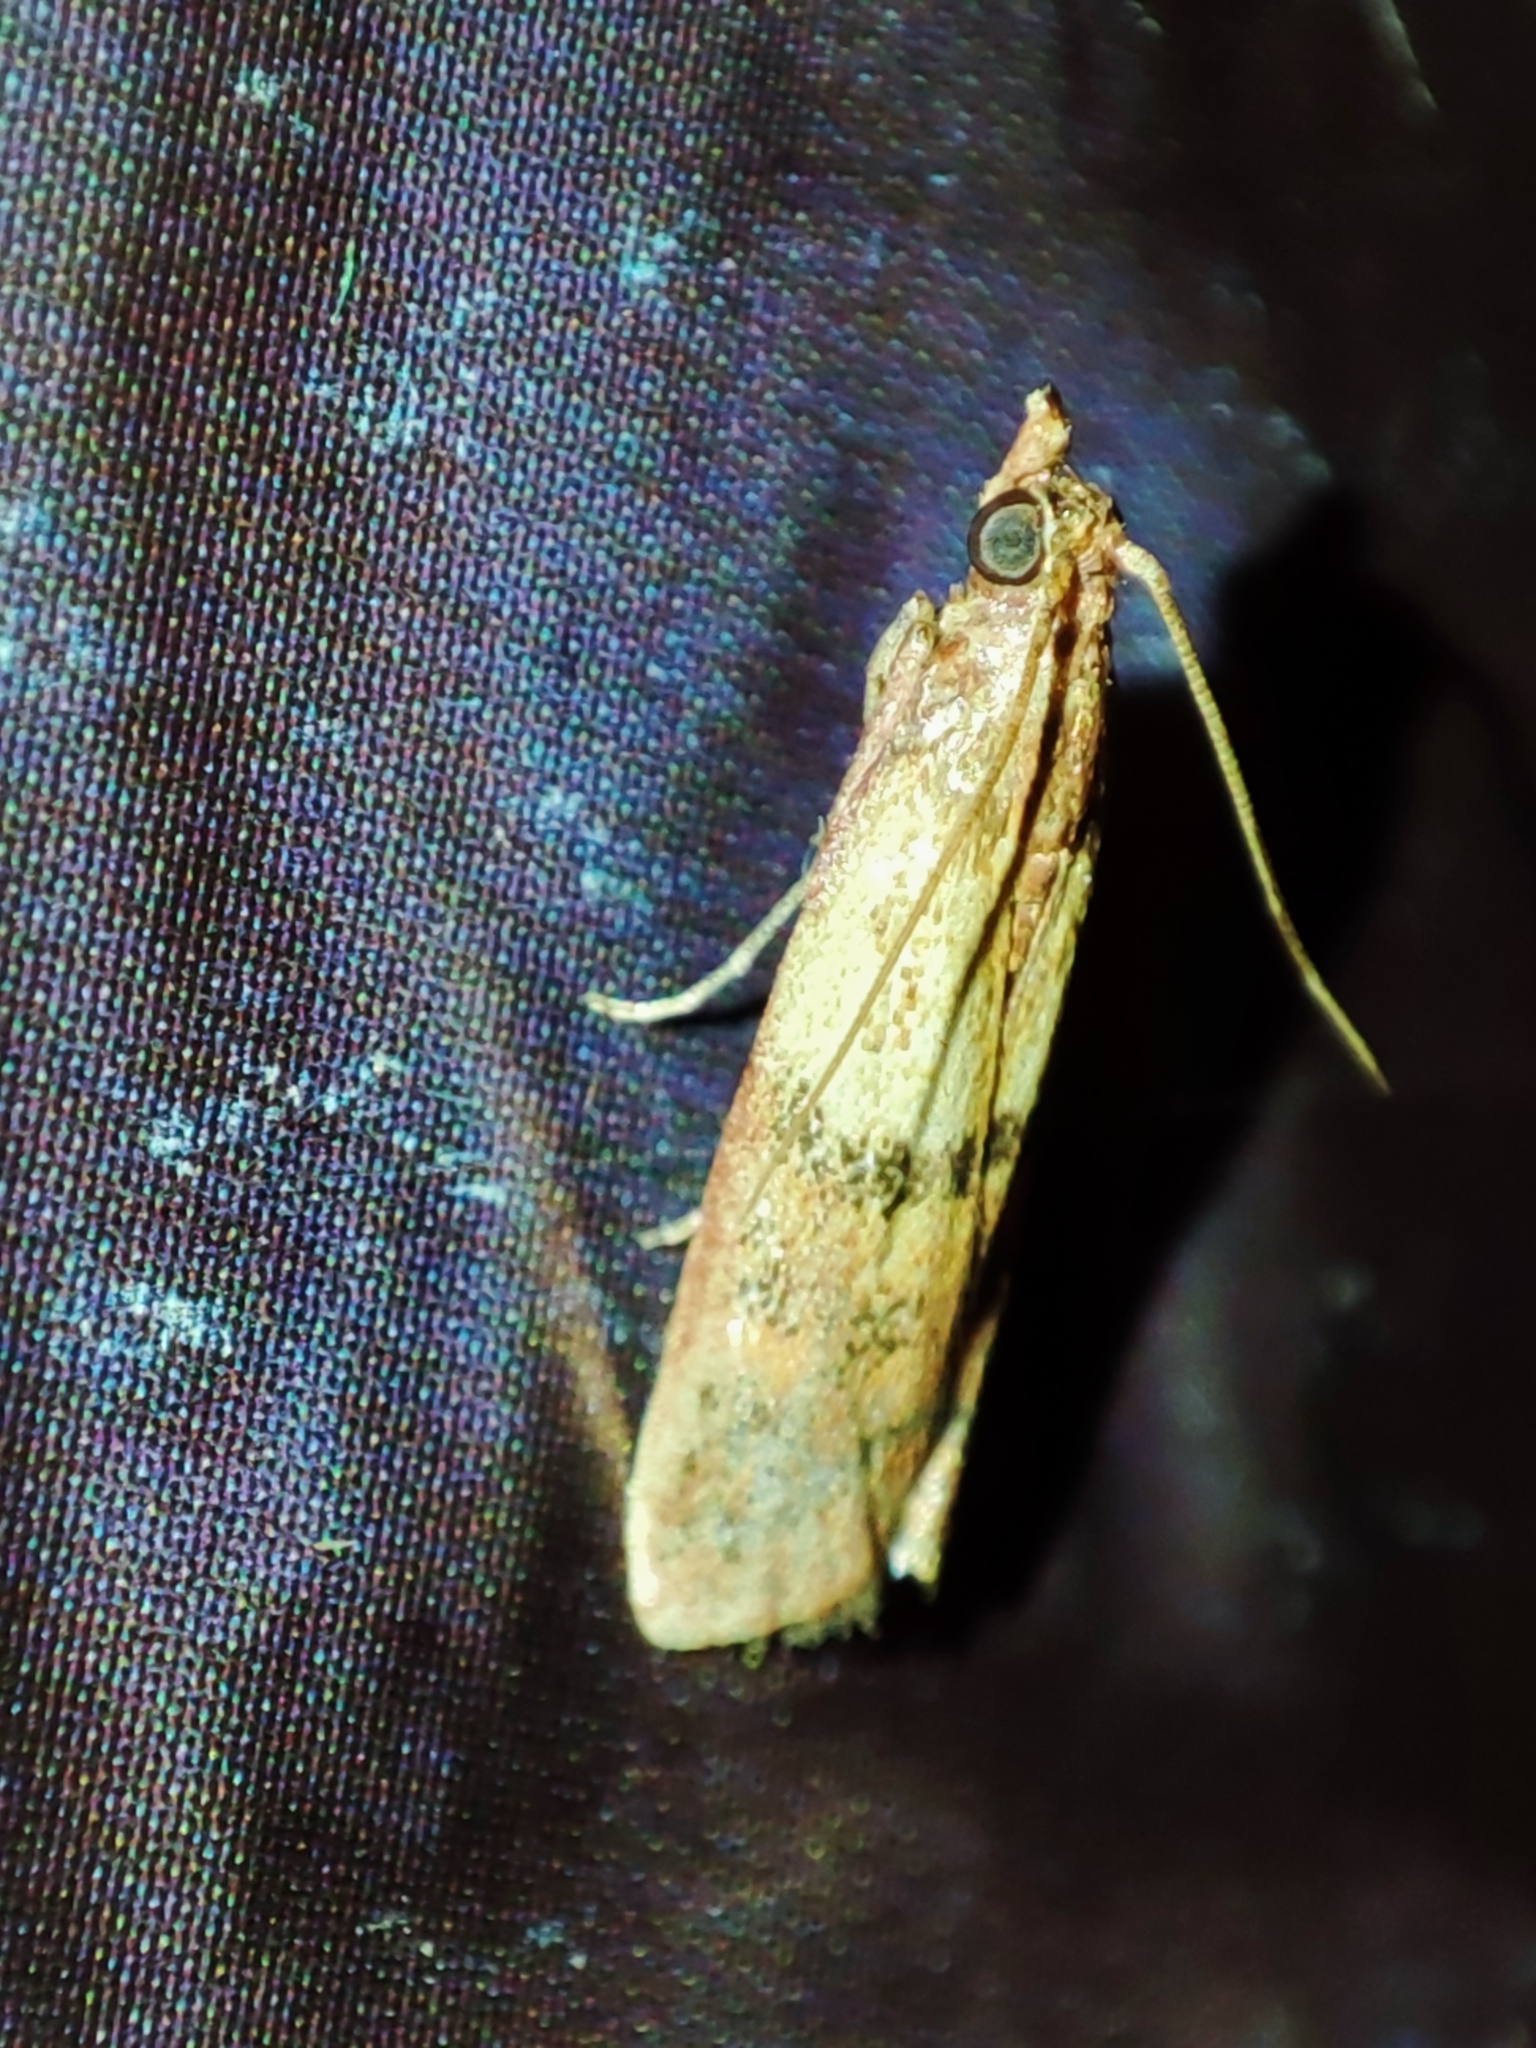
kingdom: Animalia
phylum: Arthropoda
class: Insecta
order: Lepidoptera
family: Pyralidae
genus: Plodia
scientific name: Plodia interpunctella
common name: Indian meal moth
